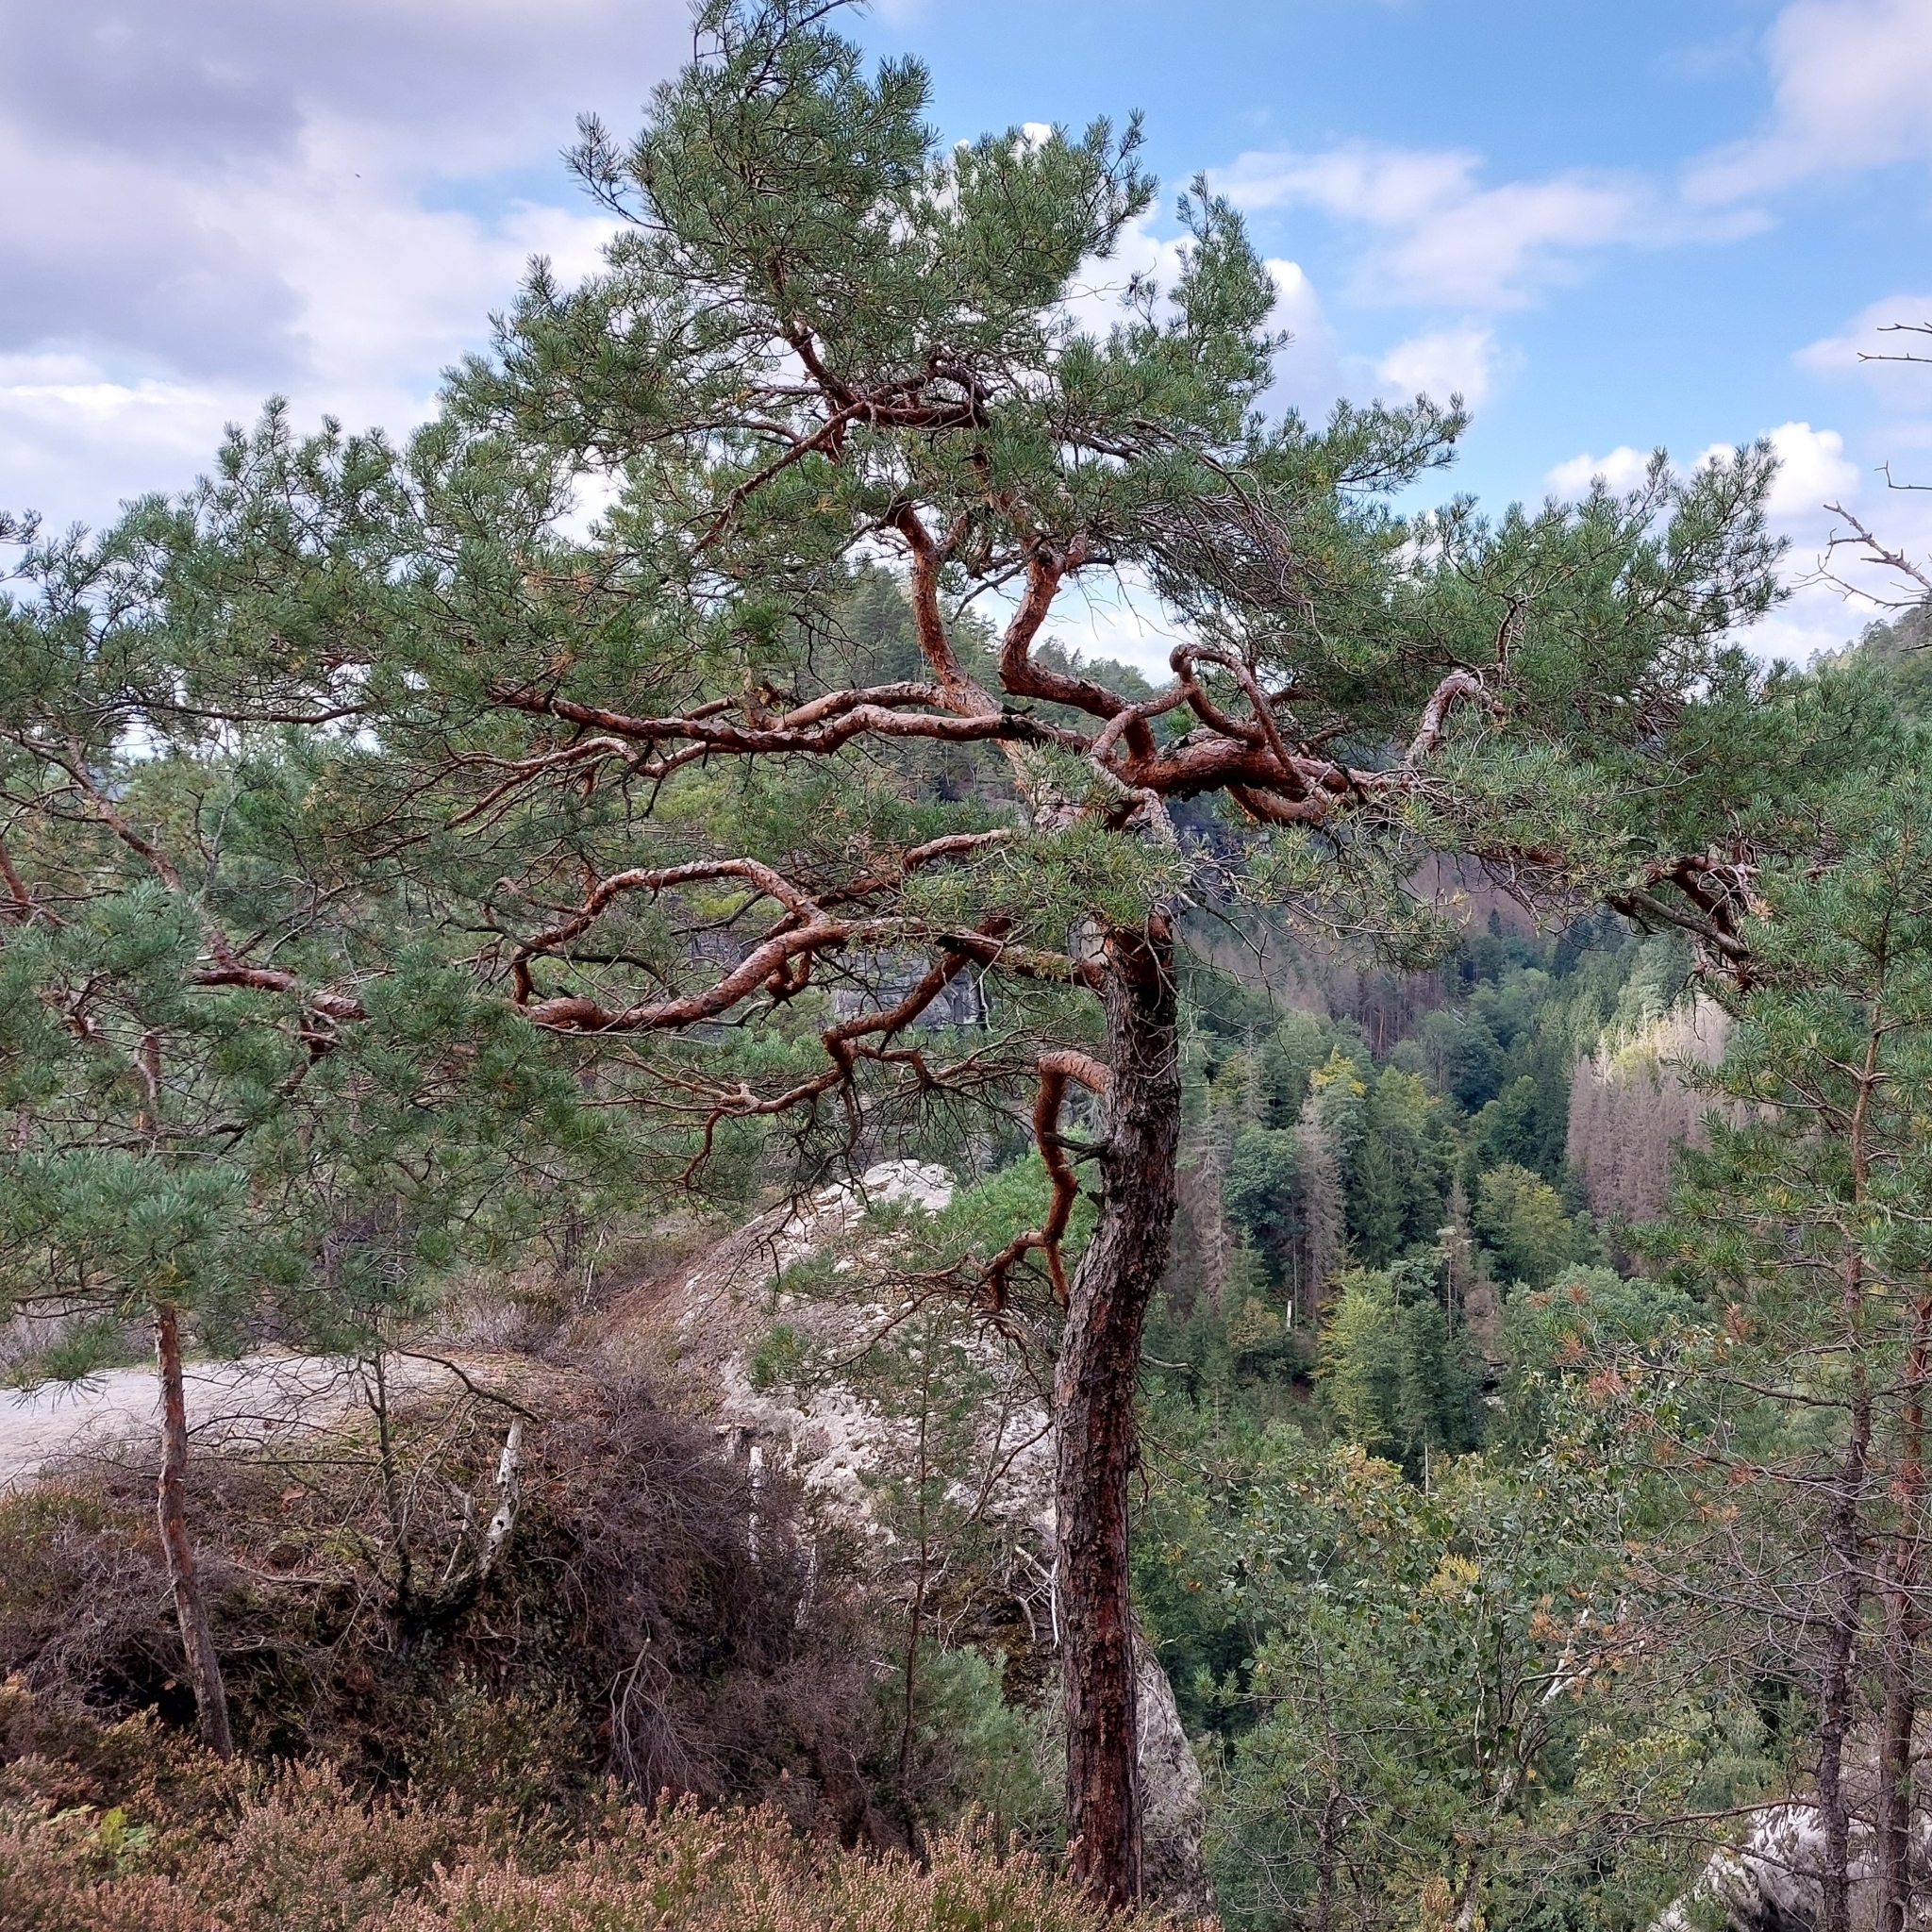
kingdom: Plantae
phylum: Tracheophyta
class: Pinopsida
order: Pinales
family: Pinaceae
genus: Pinus
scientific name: Pinus sylvestris
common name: Scots pine
